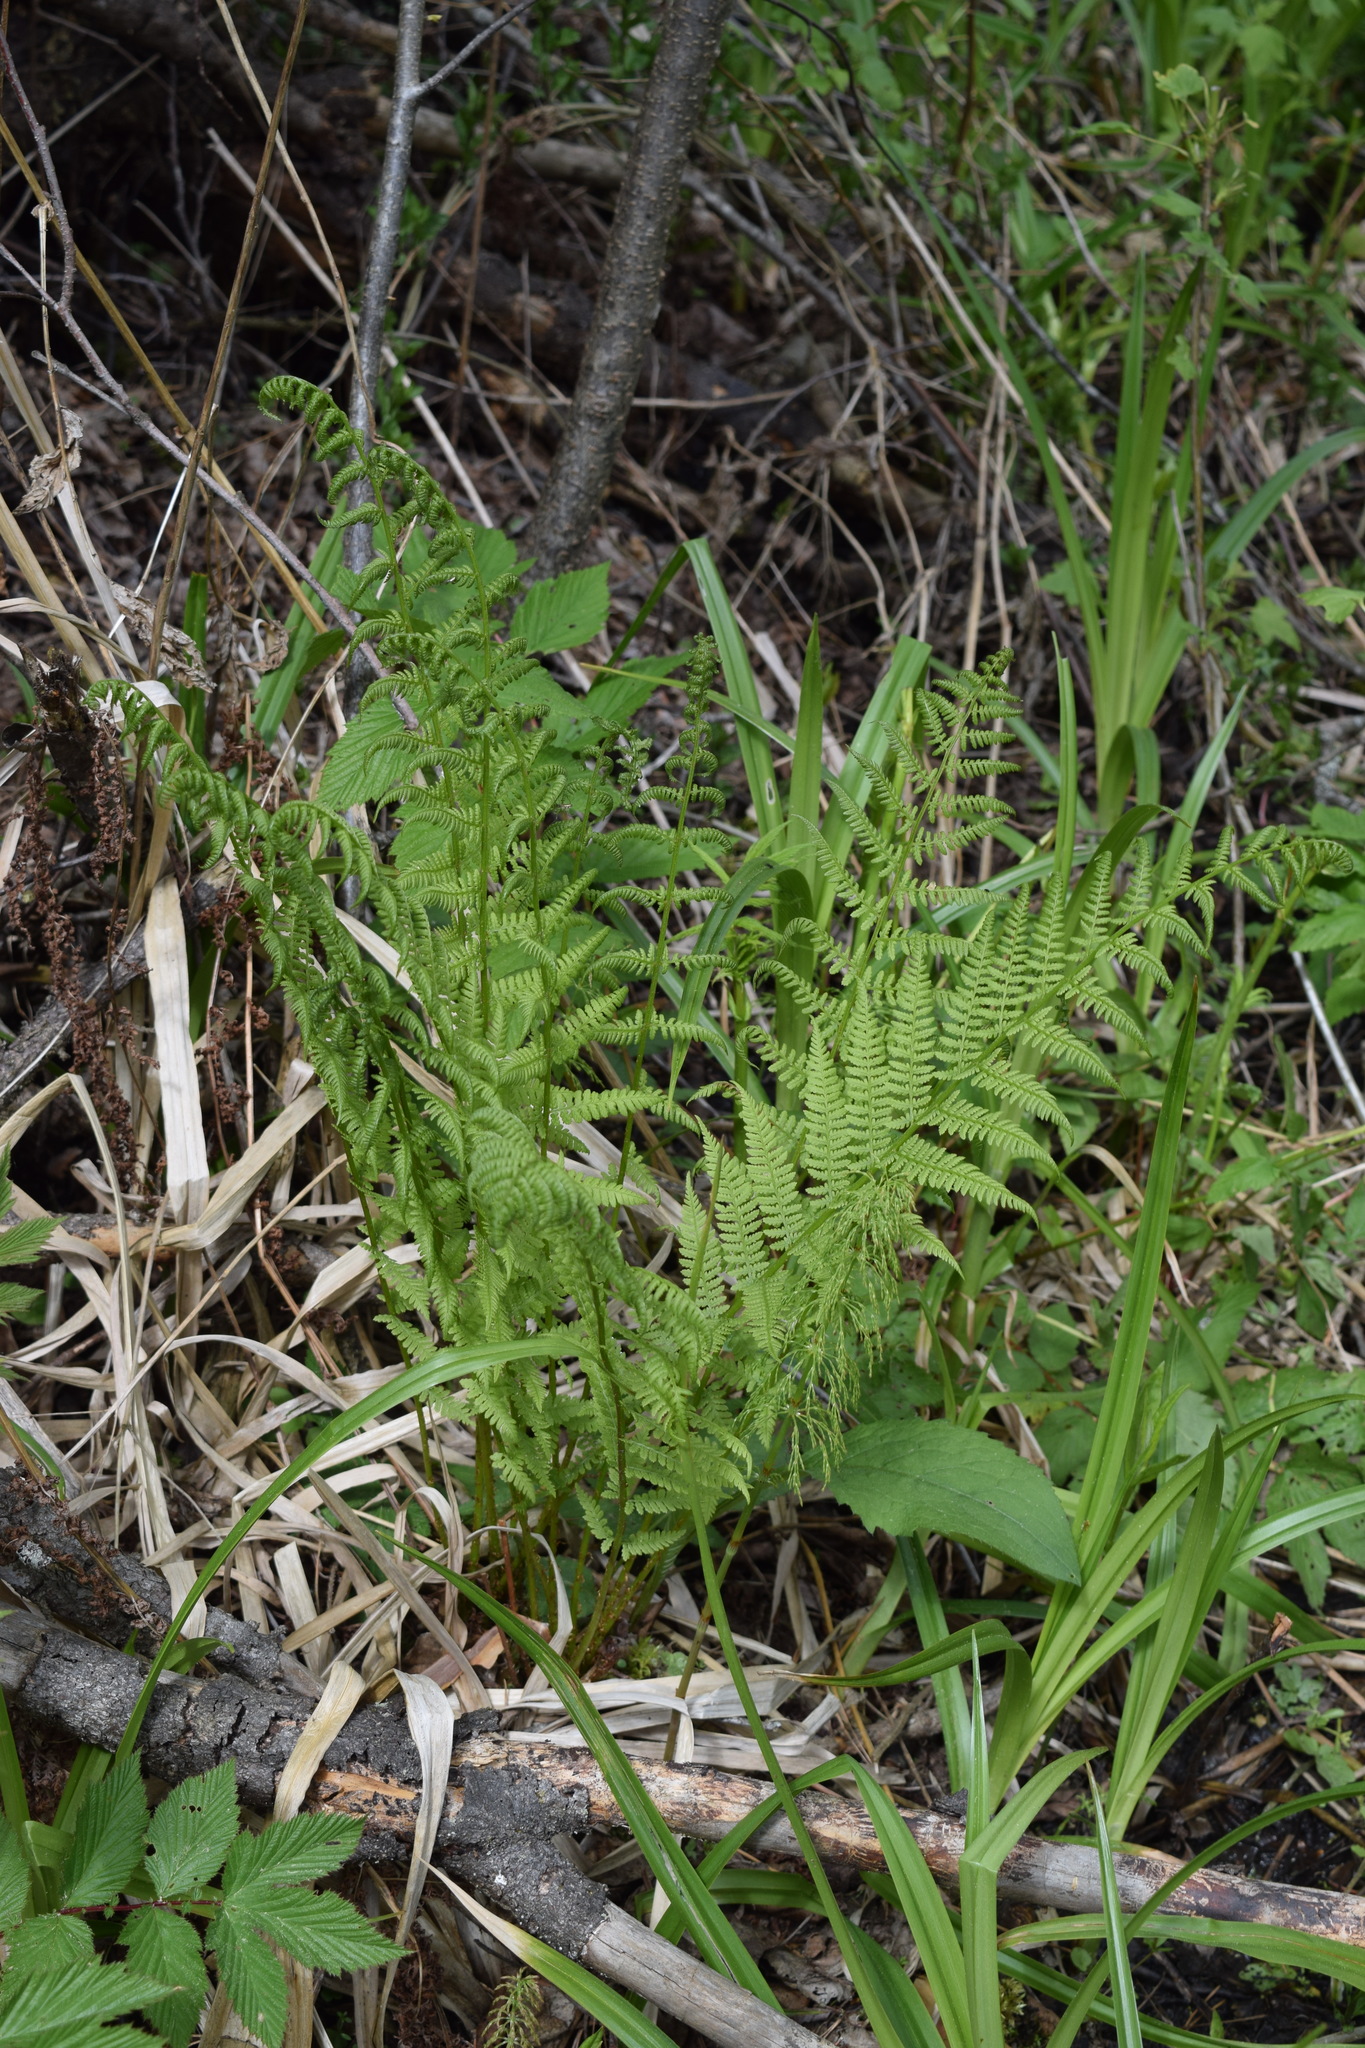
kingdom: Plantae
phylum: Tracheophyta
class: Polypodiopsida
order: Polypodiales
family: Athyriaceae
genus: Athyrium
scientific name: Athyrium filix-femina
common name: Lady fern
